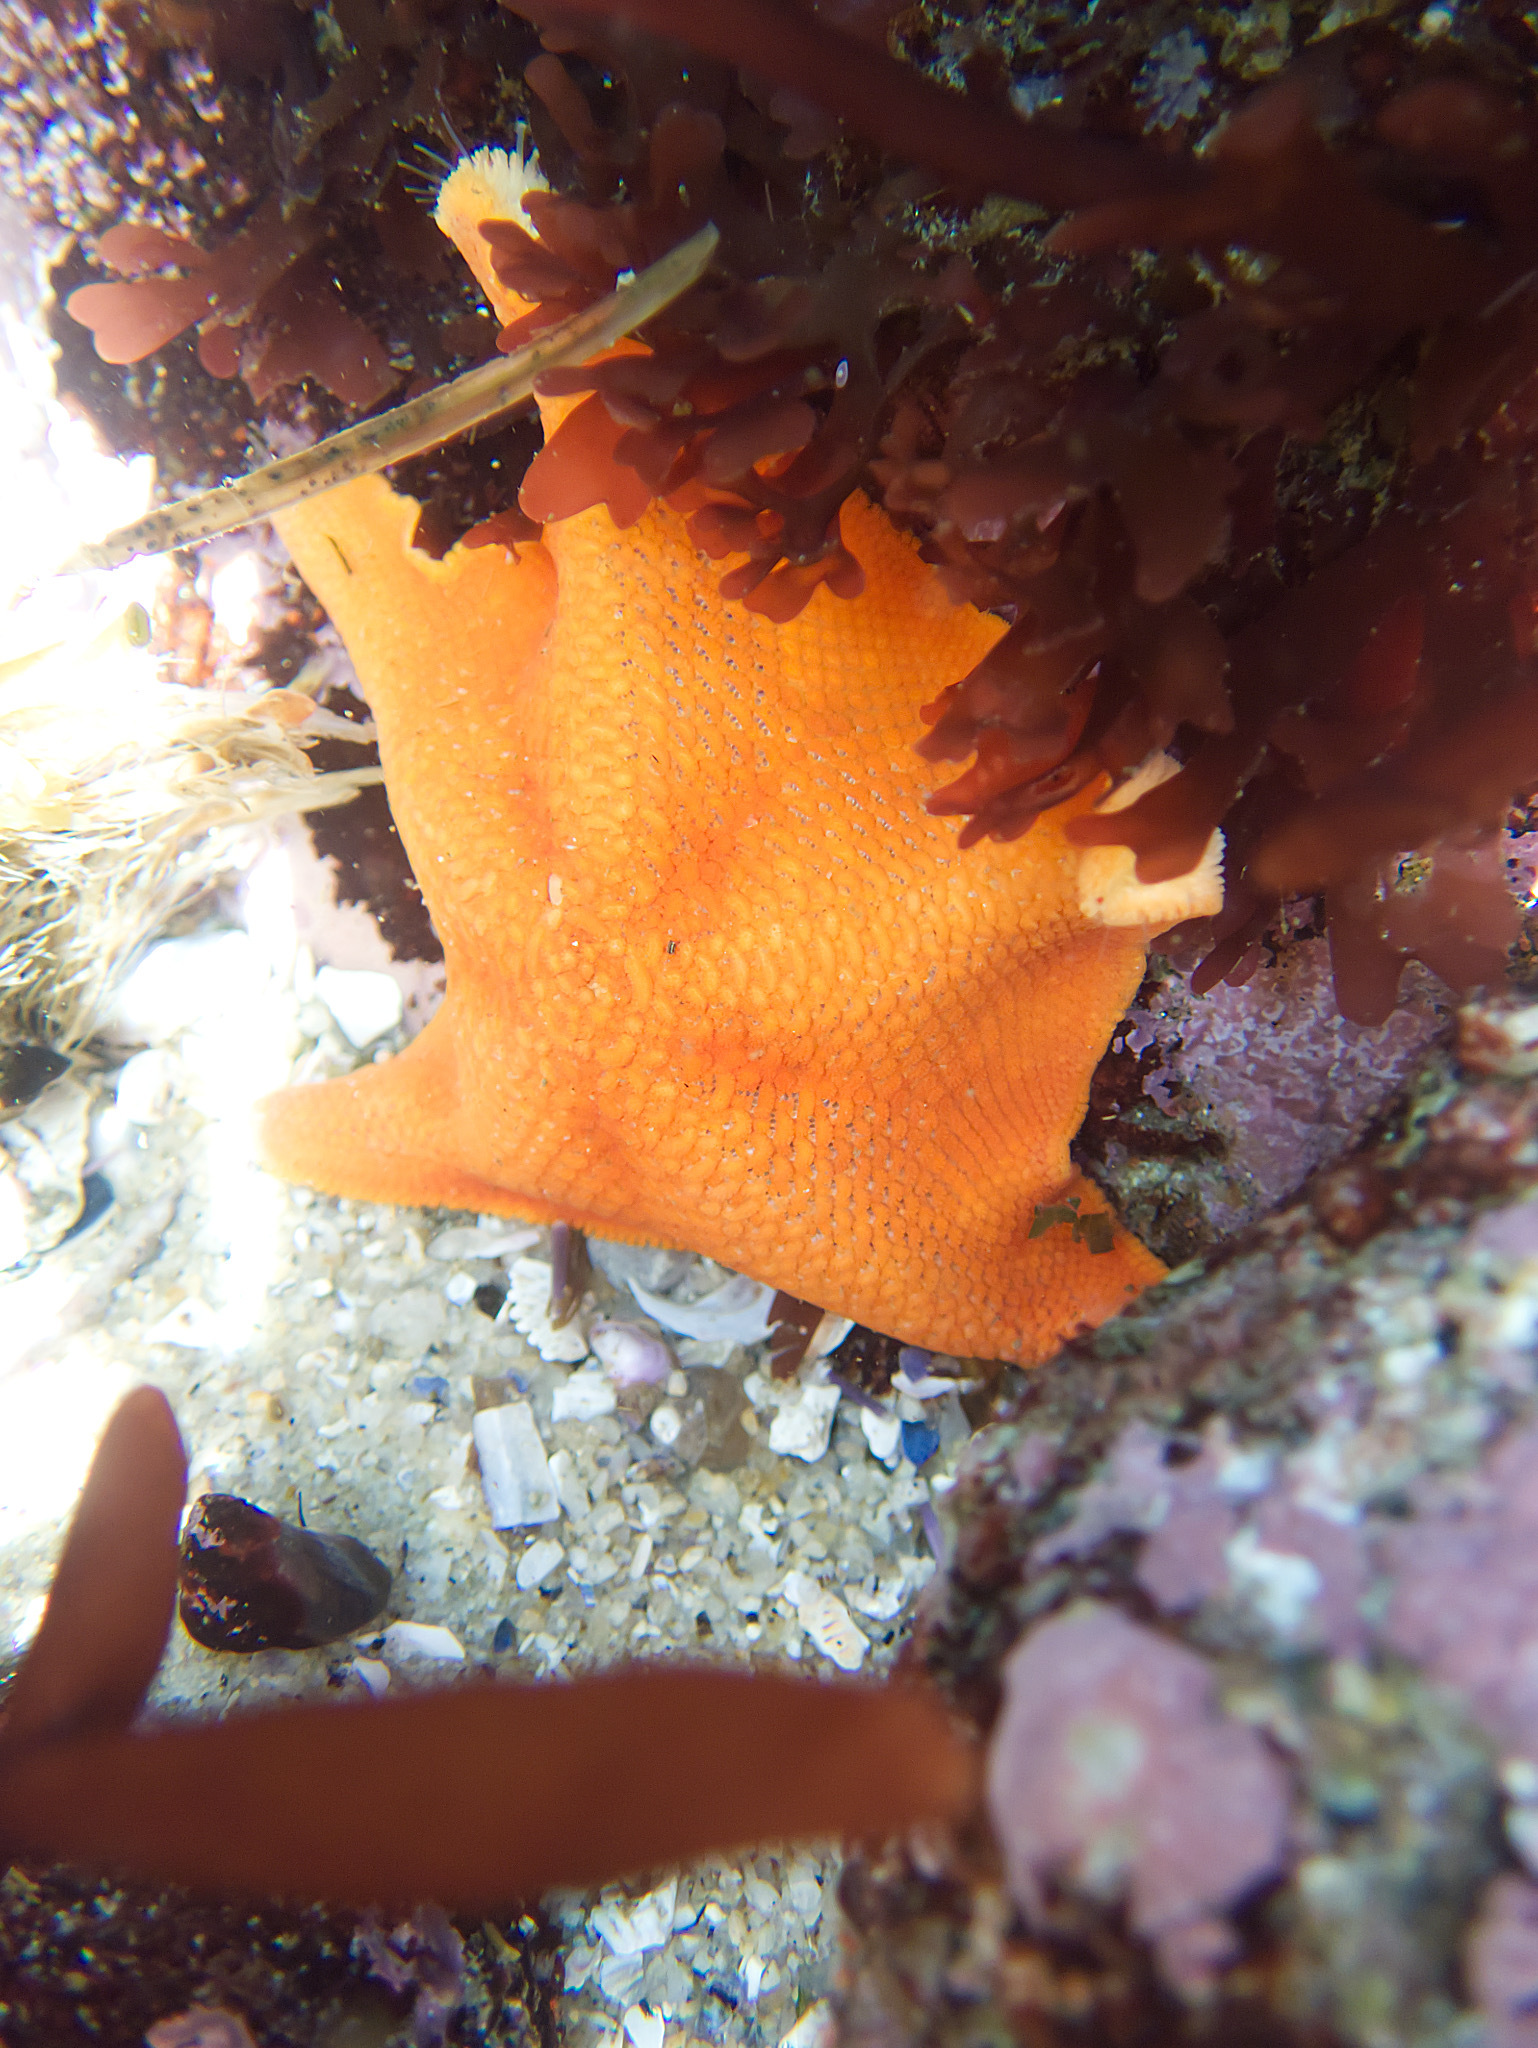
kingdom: Animalia
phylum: Echinodermata
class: Asteroidea
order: Valvatida
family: Asterinidae
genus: Patiria
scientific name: Patiria miniata
